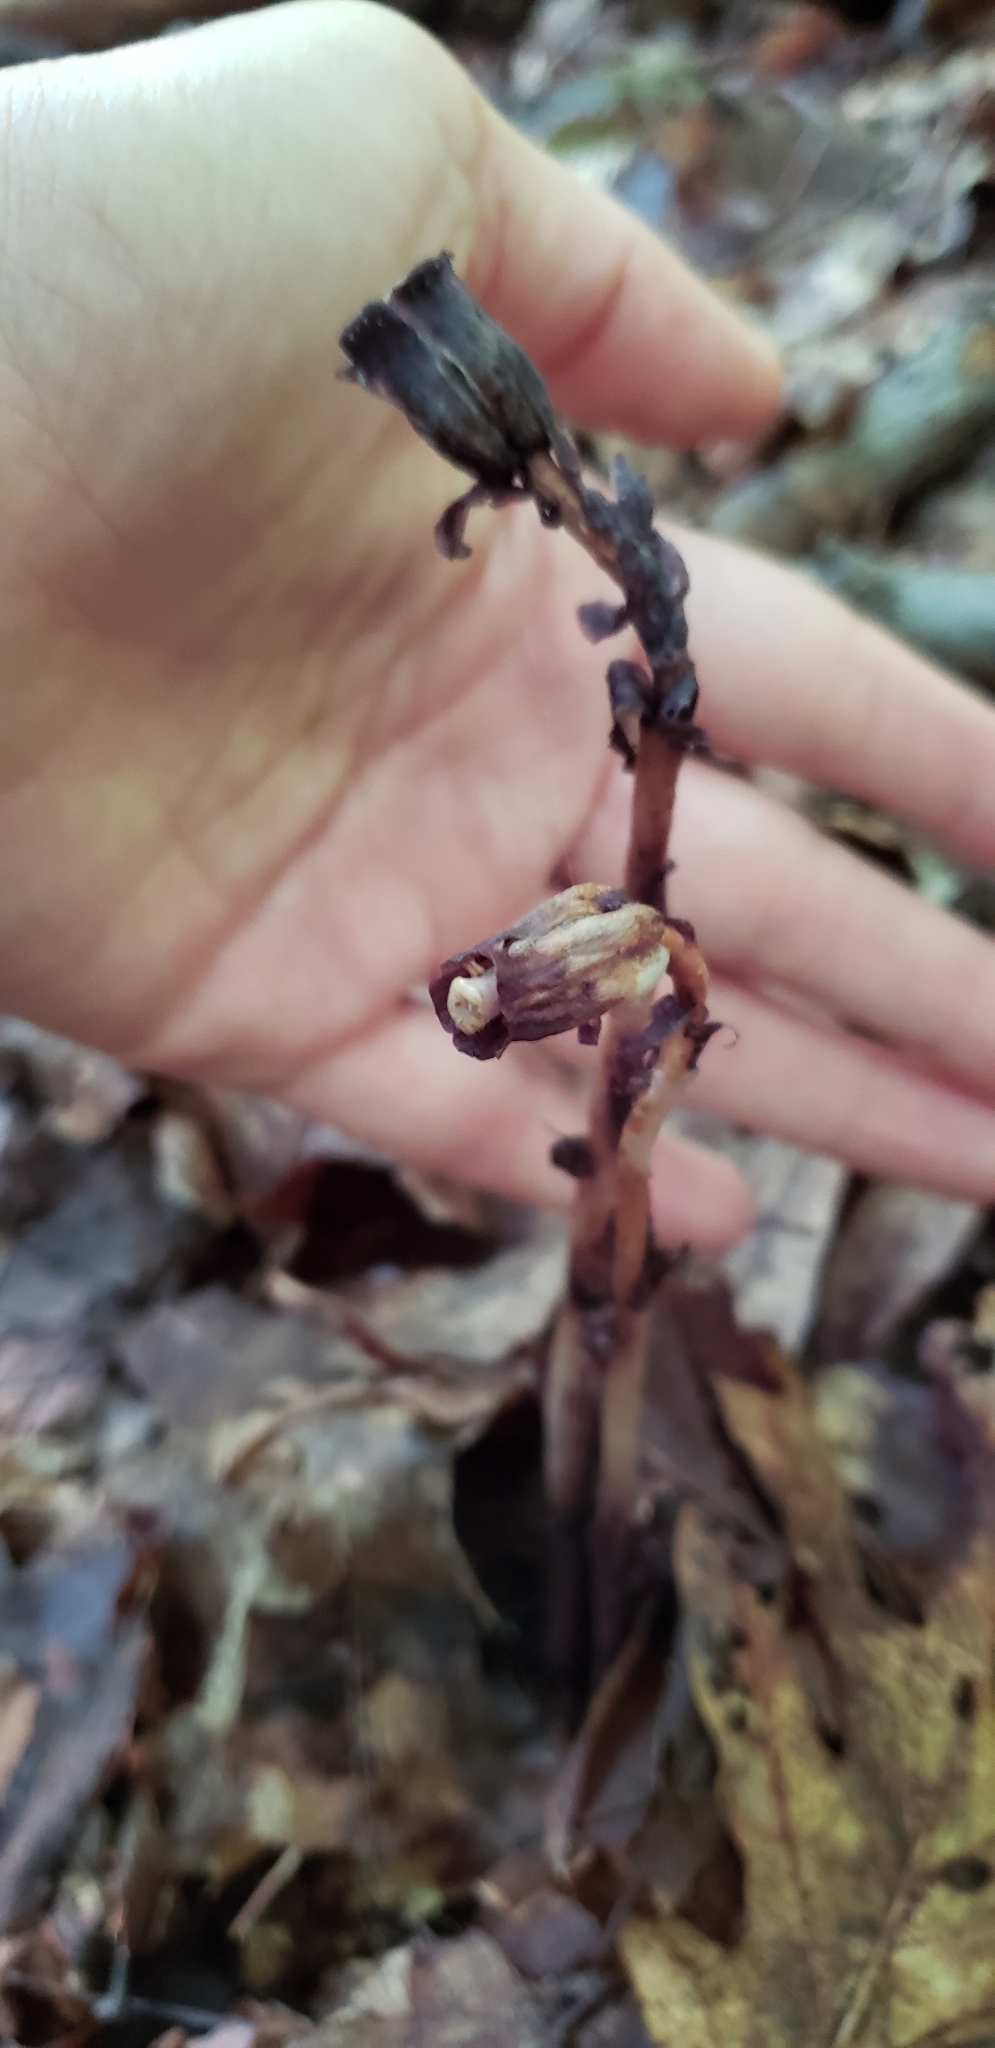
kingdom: Plantae
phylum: Tracheophyta
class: Magnoliopsida
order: Ericales
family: Ericaceae
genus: Monotropa
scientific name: Monotropa uniflora
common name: Convulsion root
